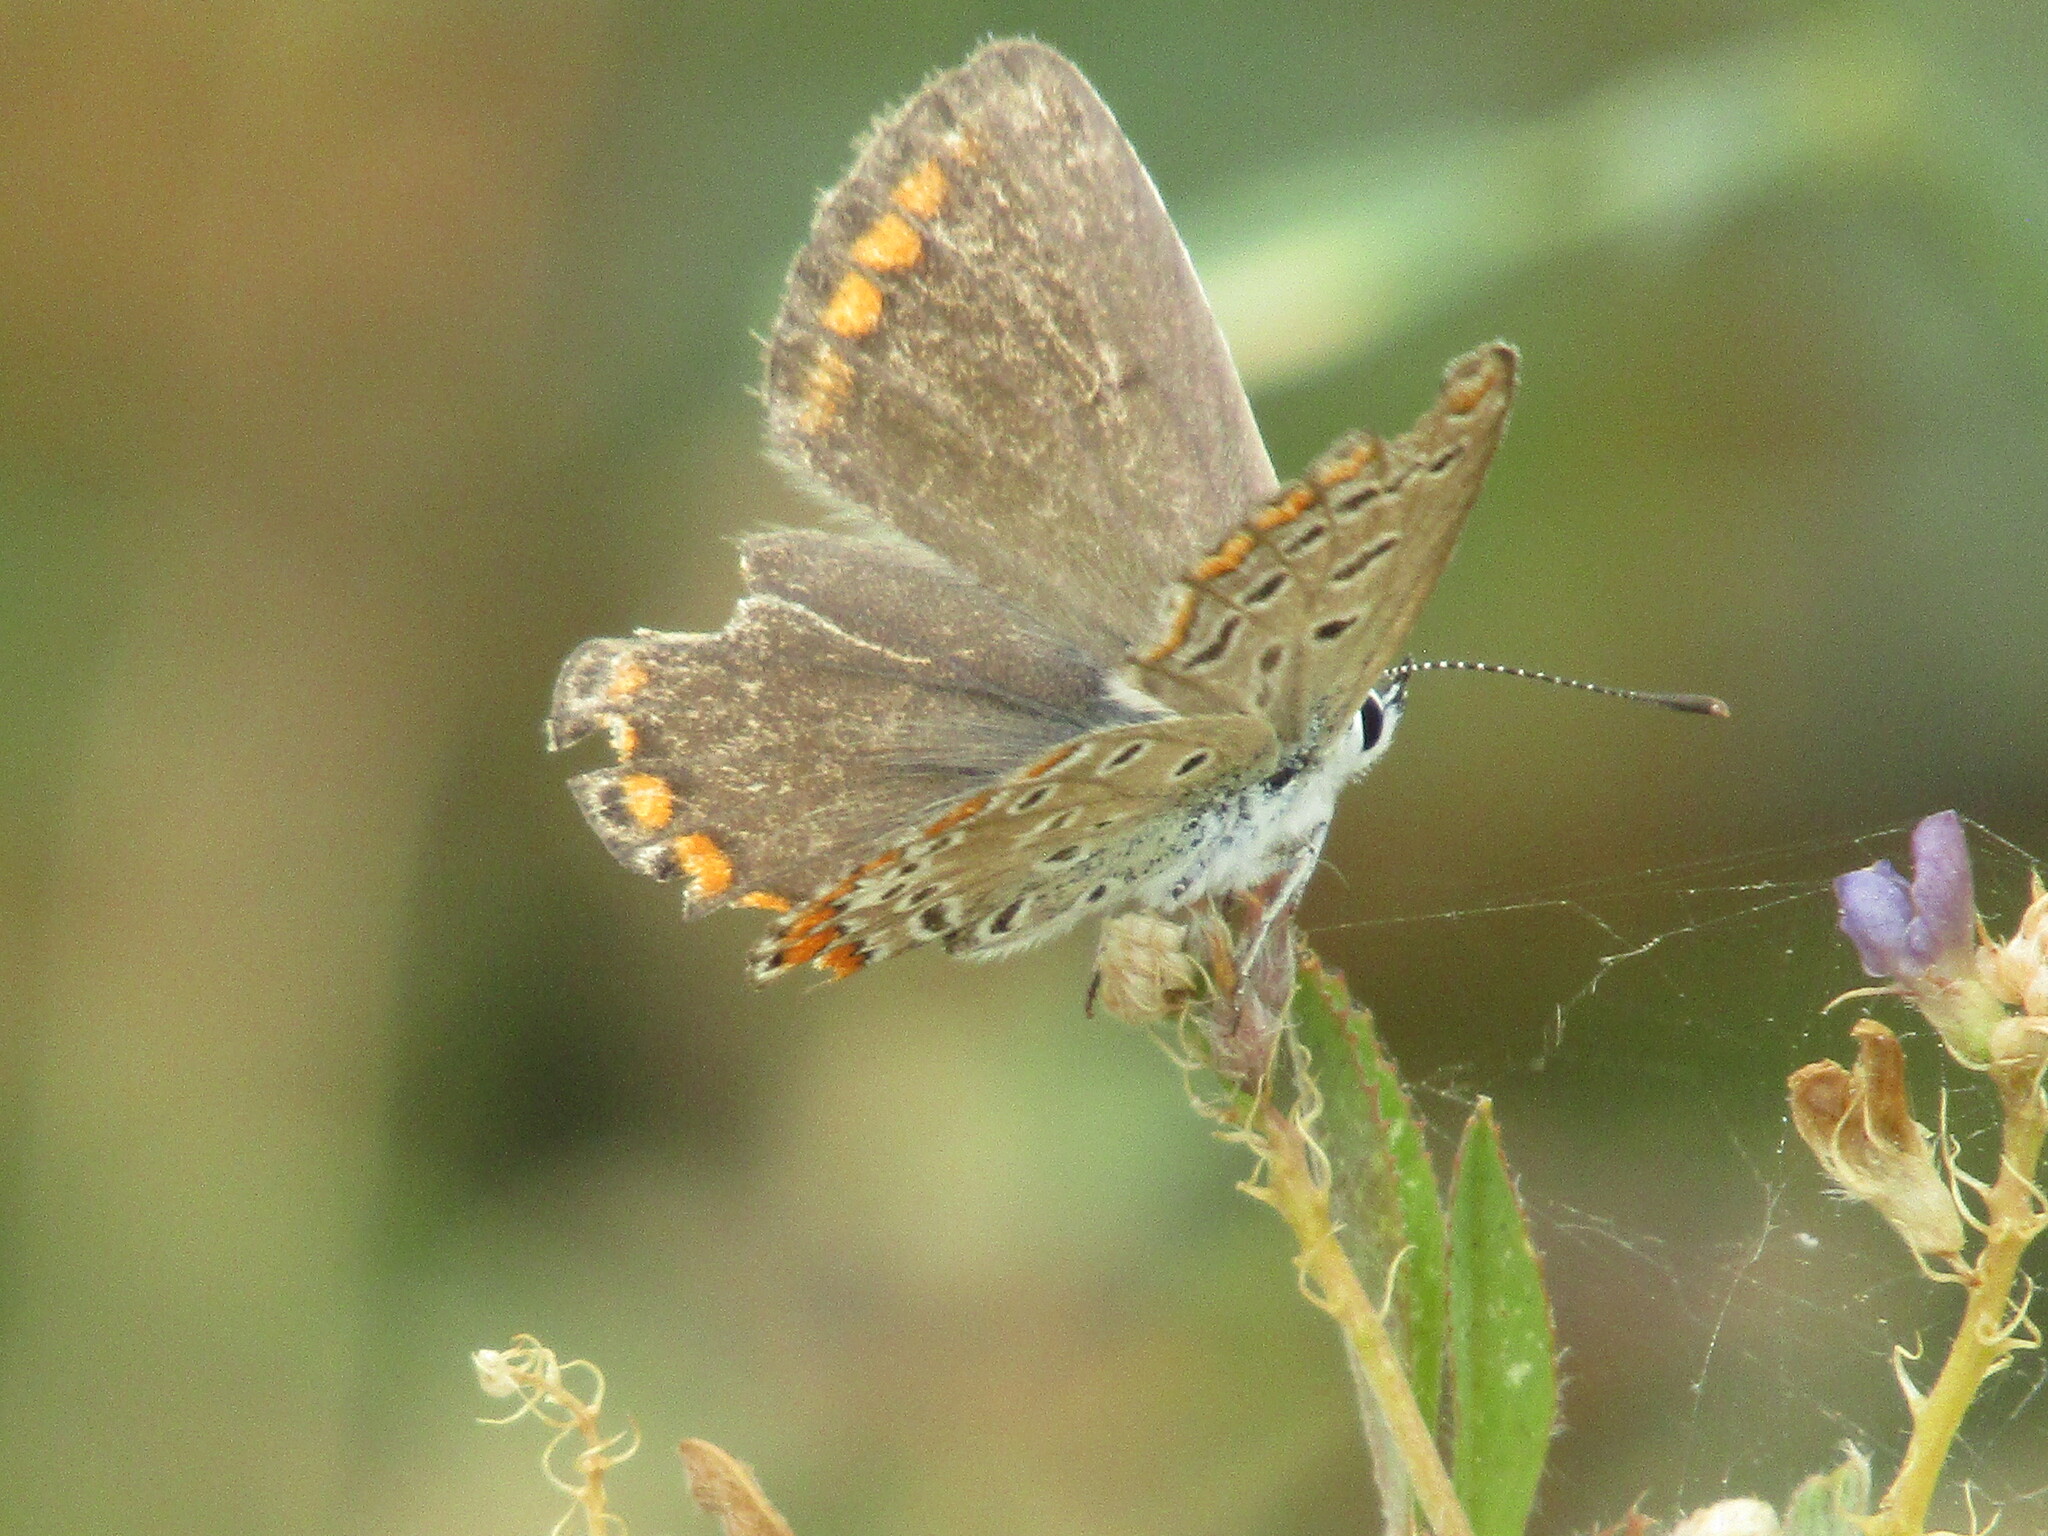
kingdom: Animalia
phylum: Arthropoda
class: Insecta
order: Lepidoptera
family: Lycaenidae
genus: Polyommatus
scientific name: Polyommatus icarus
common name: Common blue
